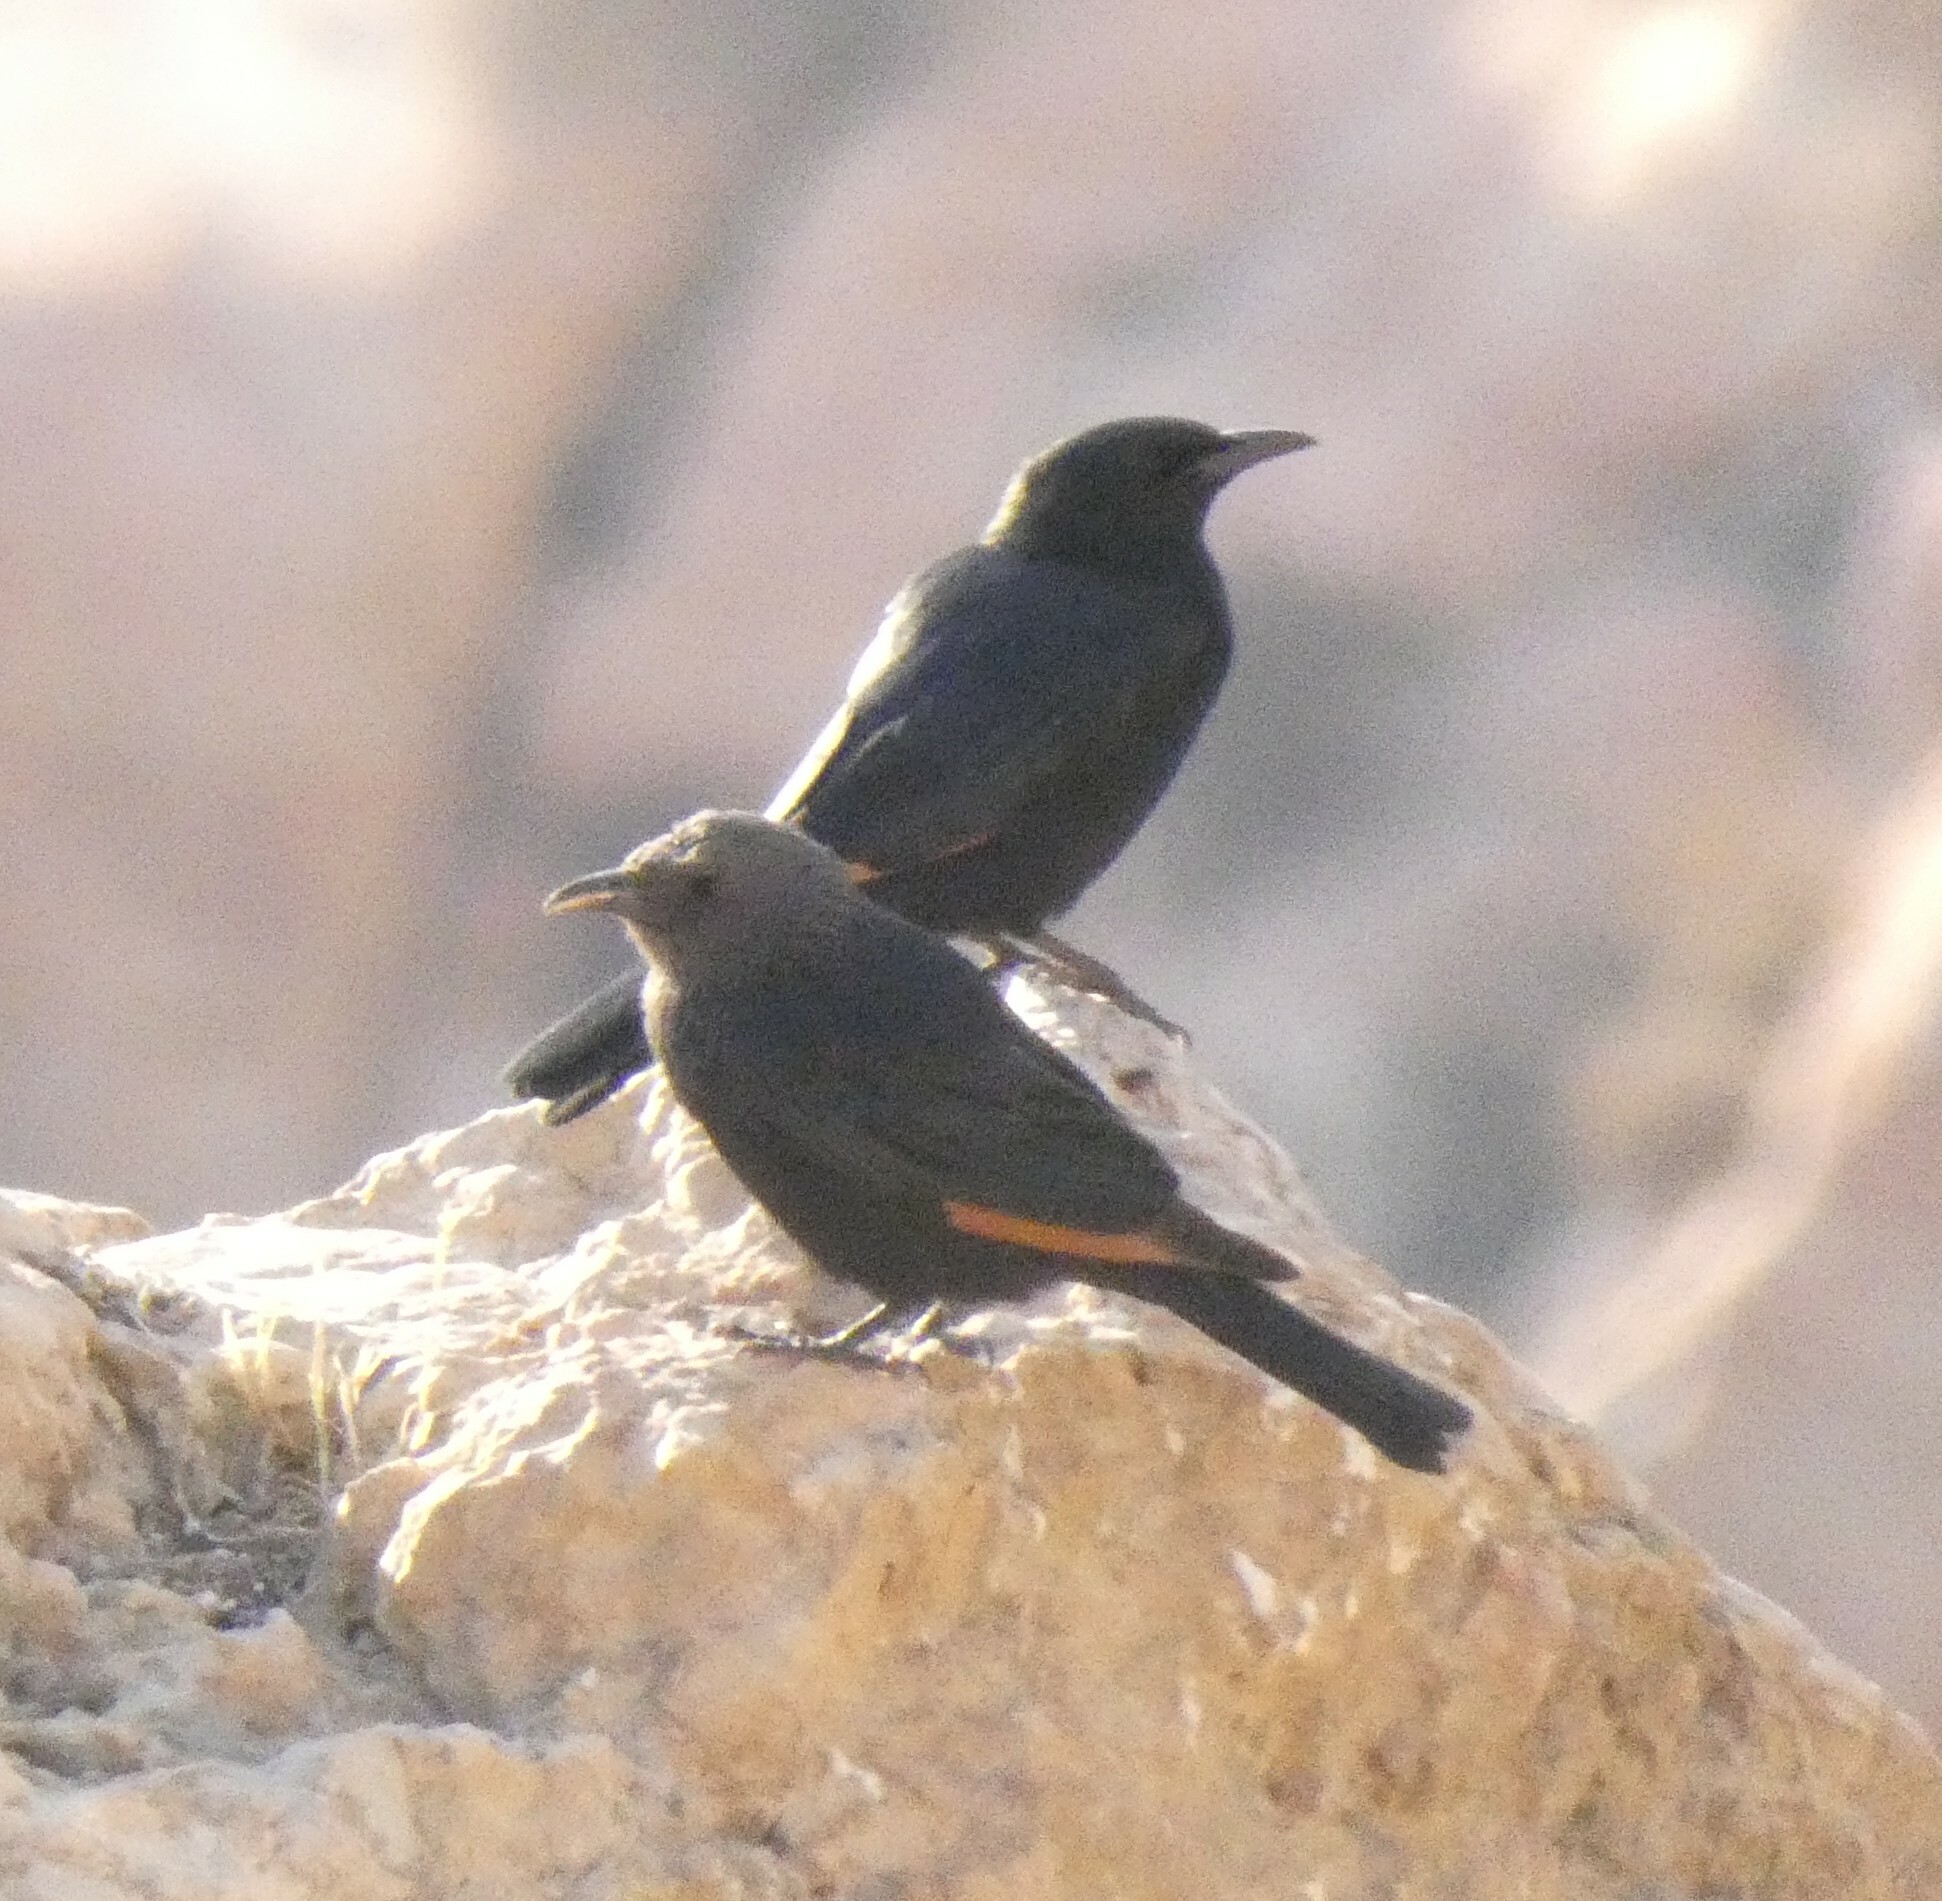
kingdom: Animalia
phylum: Chordata
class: Aves
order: Passeriformes
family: Sturnidae
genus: Onychognathus
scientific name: Onychognathus tristramii
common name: Tristram's starling
